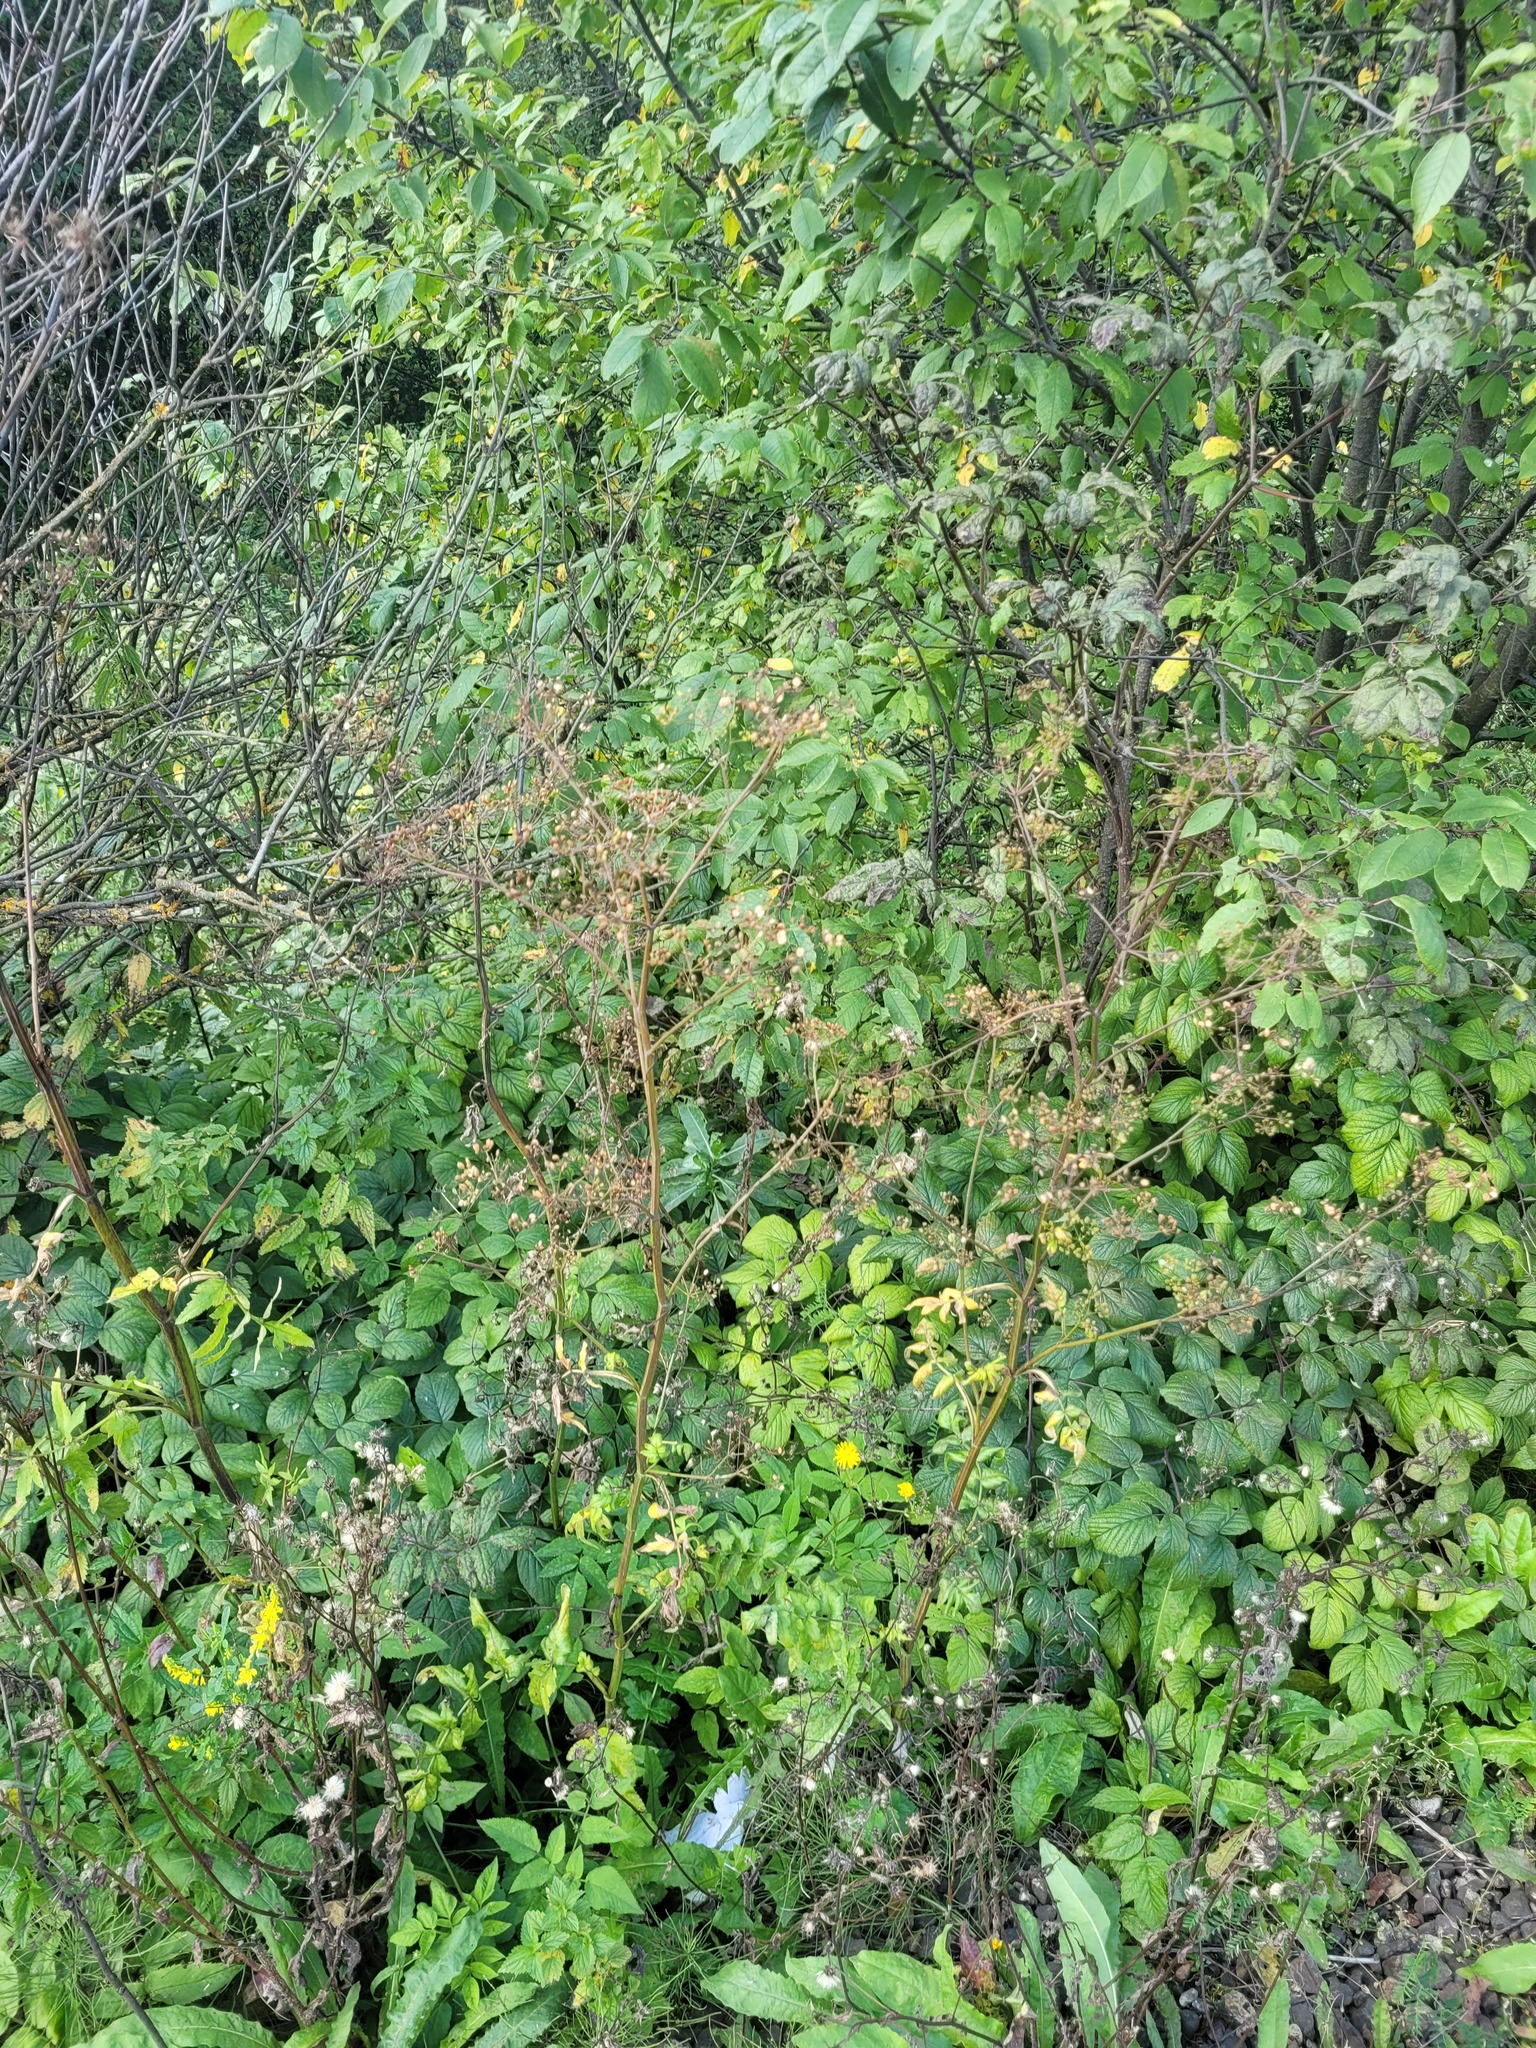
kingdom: Plantae
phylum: Tracheophyta
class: Magnoliopsida
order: Apiales
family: Apiaceae
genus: Pastinaca
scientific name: Pastinaca sativa
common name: Wild parsnip
